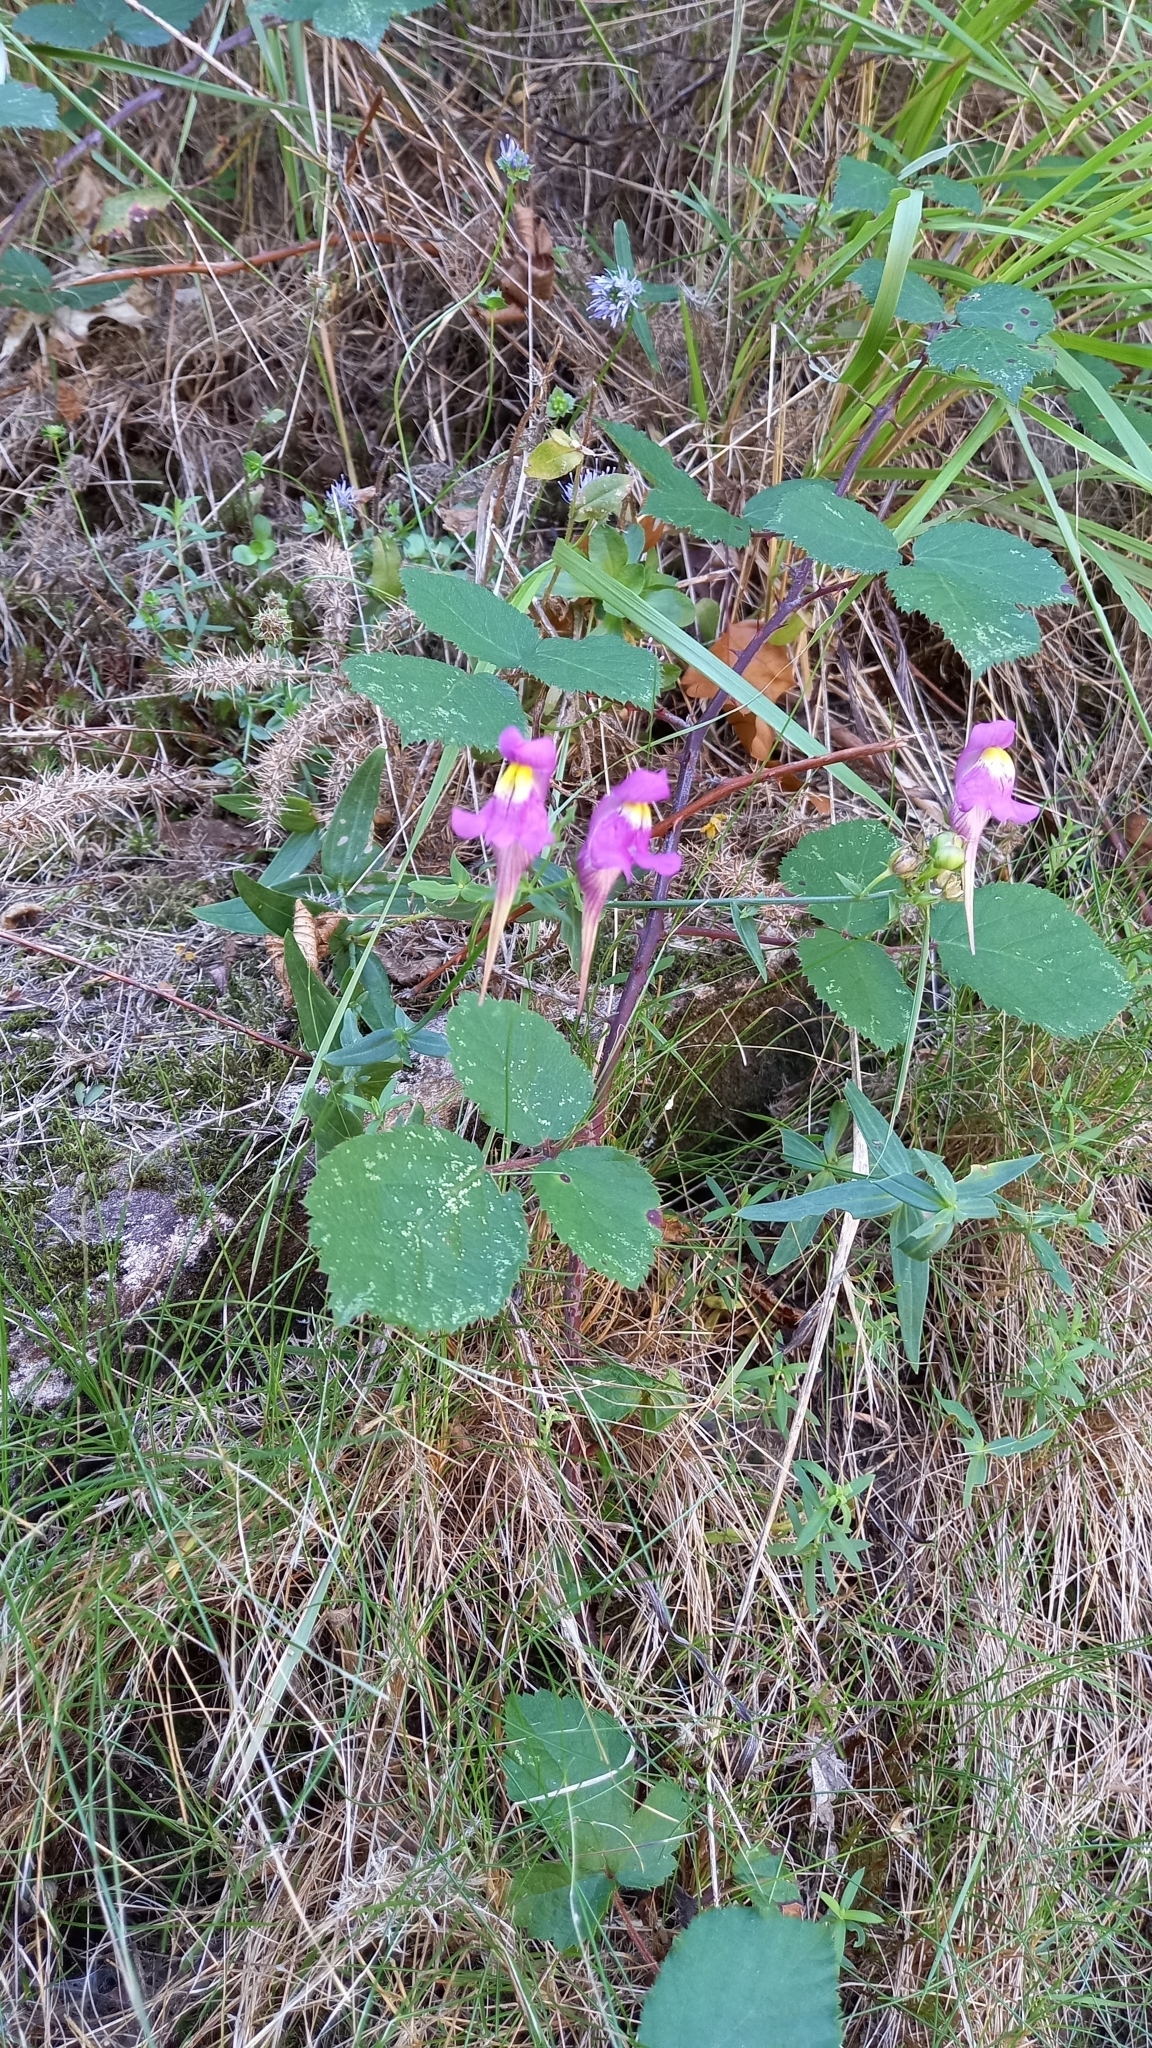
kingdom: Plantae
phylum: Tracheophyta
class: Magnoliopsida
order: Lamiales
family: Plantaginaceae
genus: Linaria
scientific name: Linaria triornithophora
